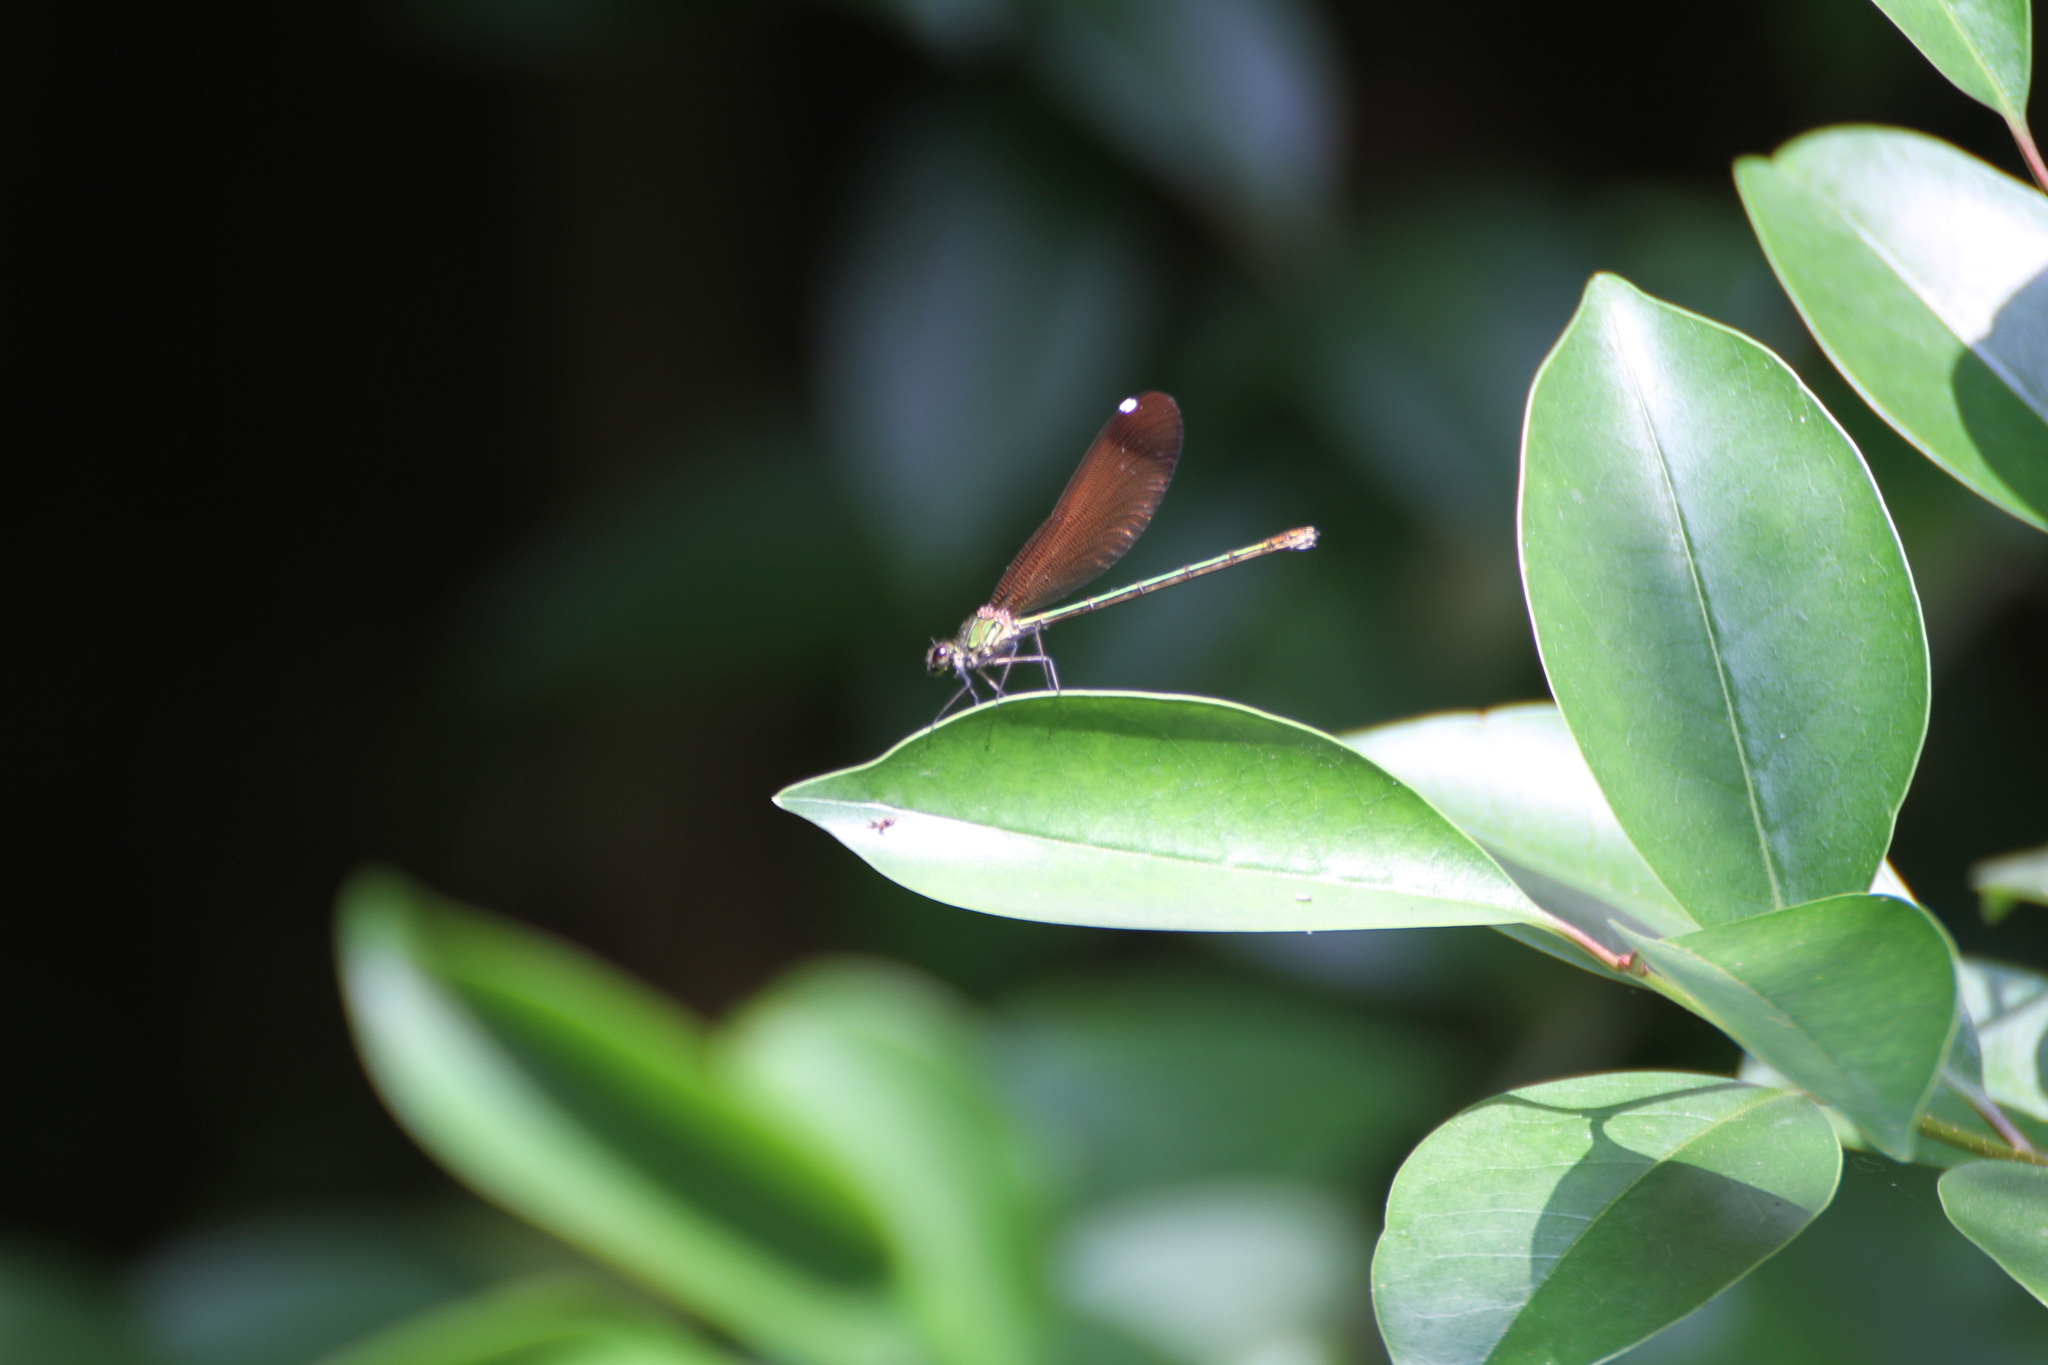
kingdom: Animalia
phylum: Arthropoda
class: Insecta
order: Odonata
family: Calopterygidae
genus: Calopteryx
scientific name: Calopteryx haemorrhoidalis
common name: Copper demoiselle
